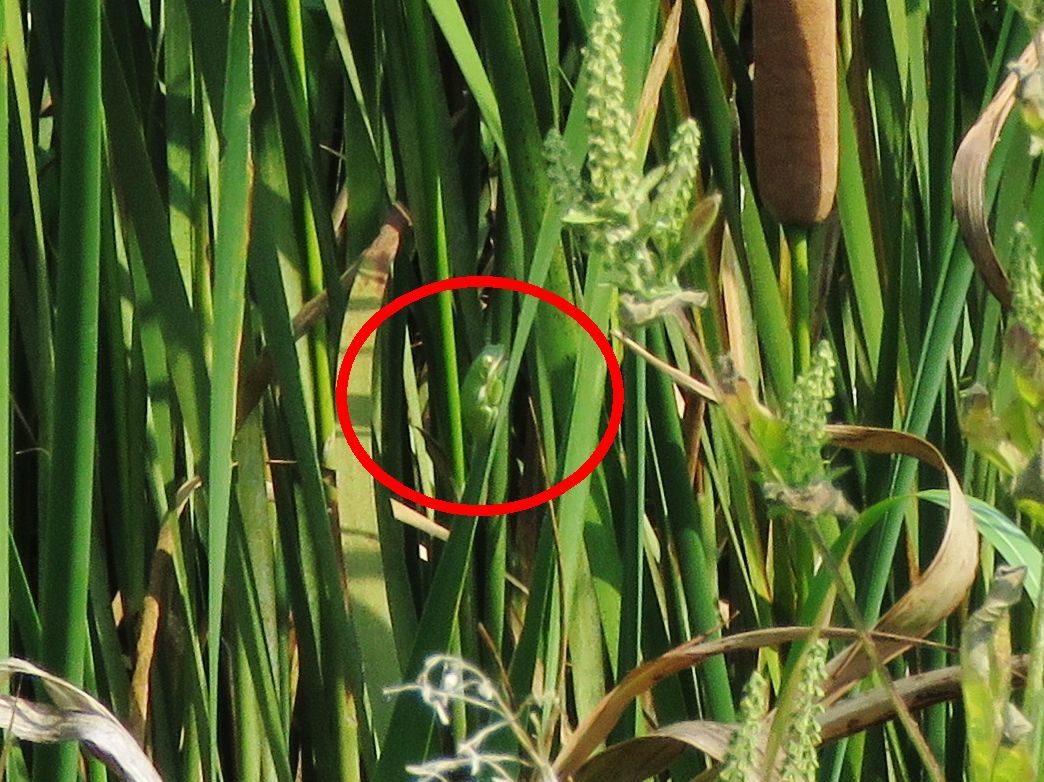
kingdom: Animalia
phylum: Chordata
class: Amphibia
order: Anura
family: Hylidae
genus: Dryophytes
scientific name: Dryophytes cinereus
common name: Green treefrog
